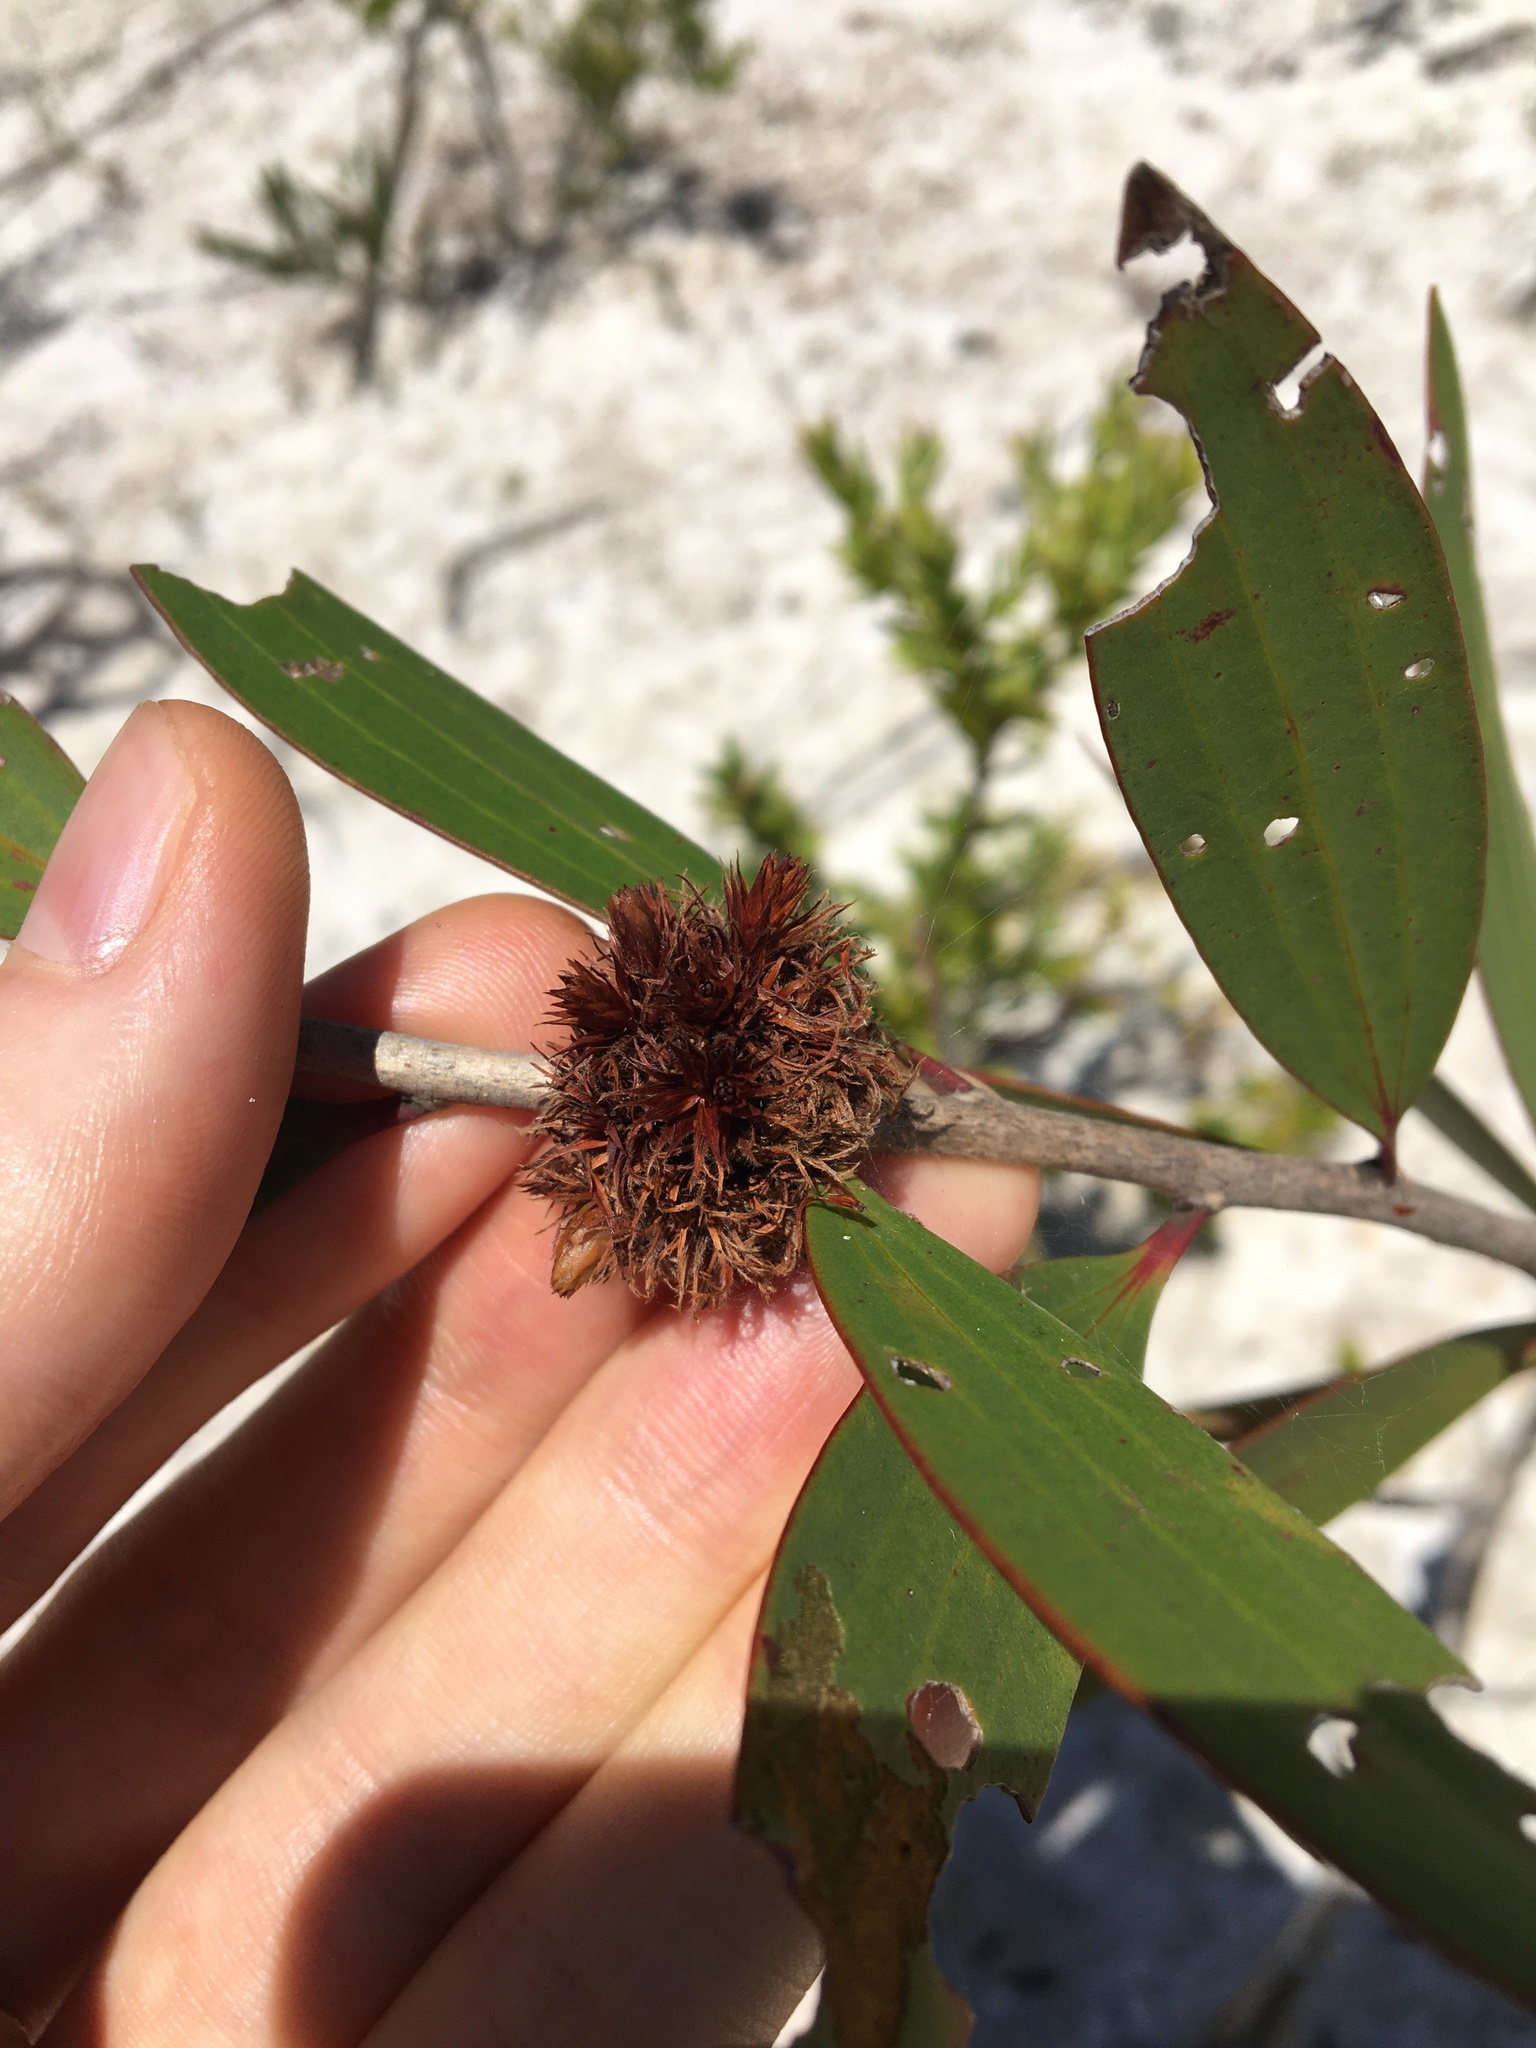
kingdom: Animalia
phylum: Arthropoda
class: Insecta
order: Hemiptera
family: Beesoniidae
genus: Beesonia
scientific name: Beesonia ferrugineus
